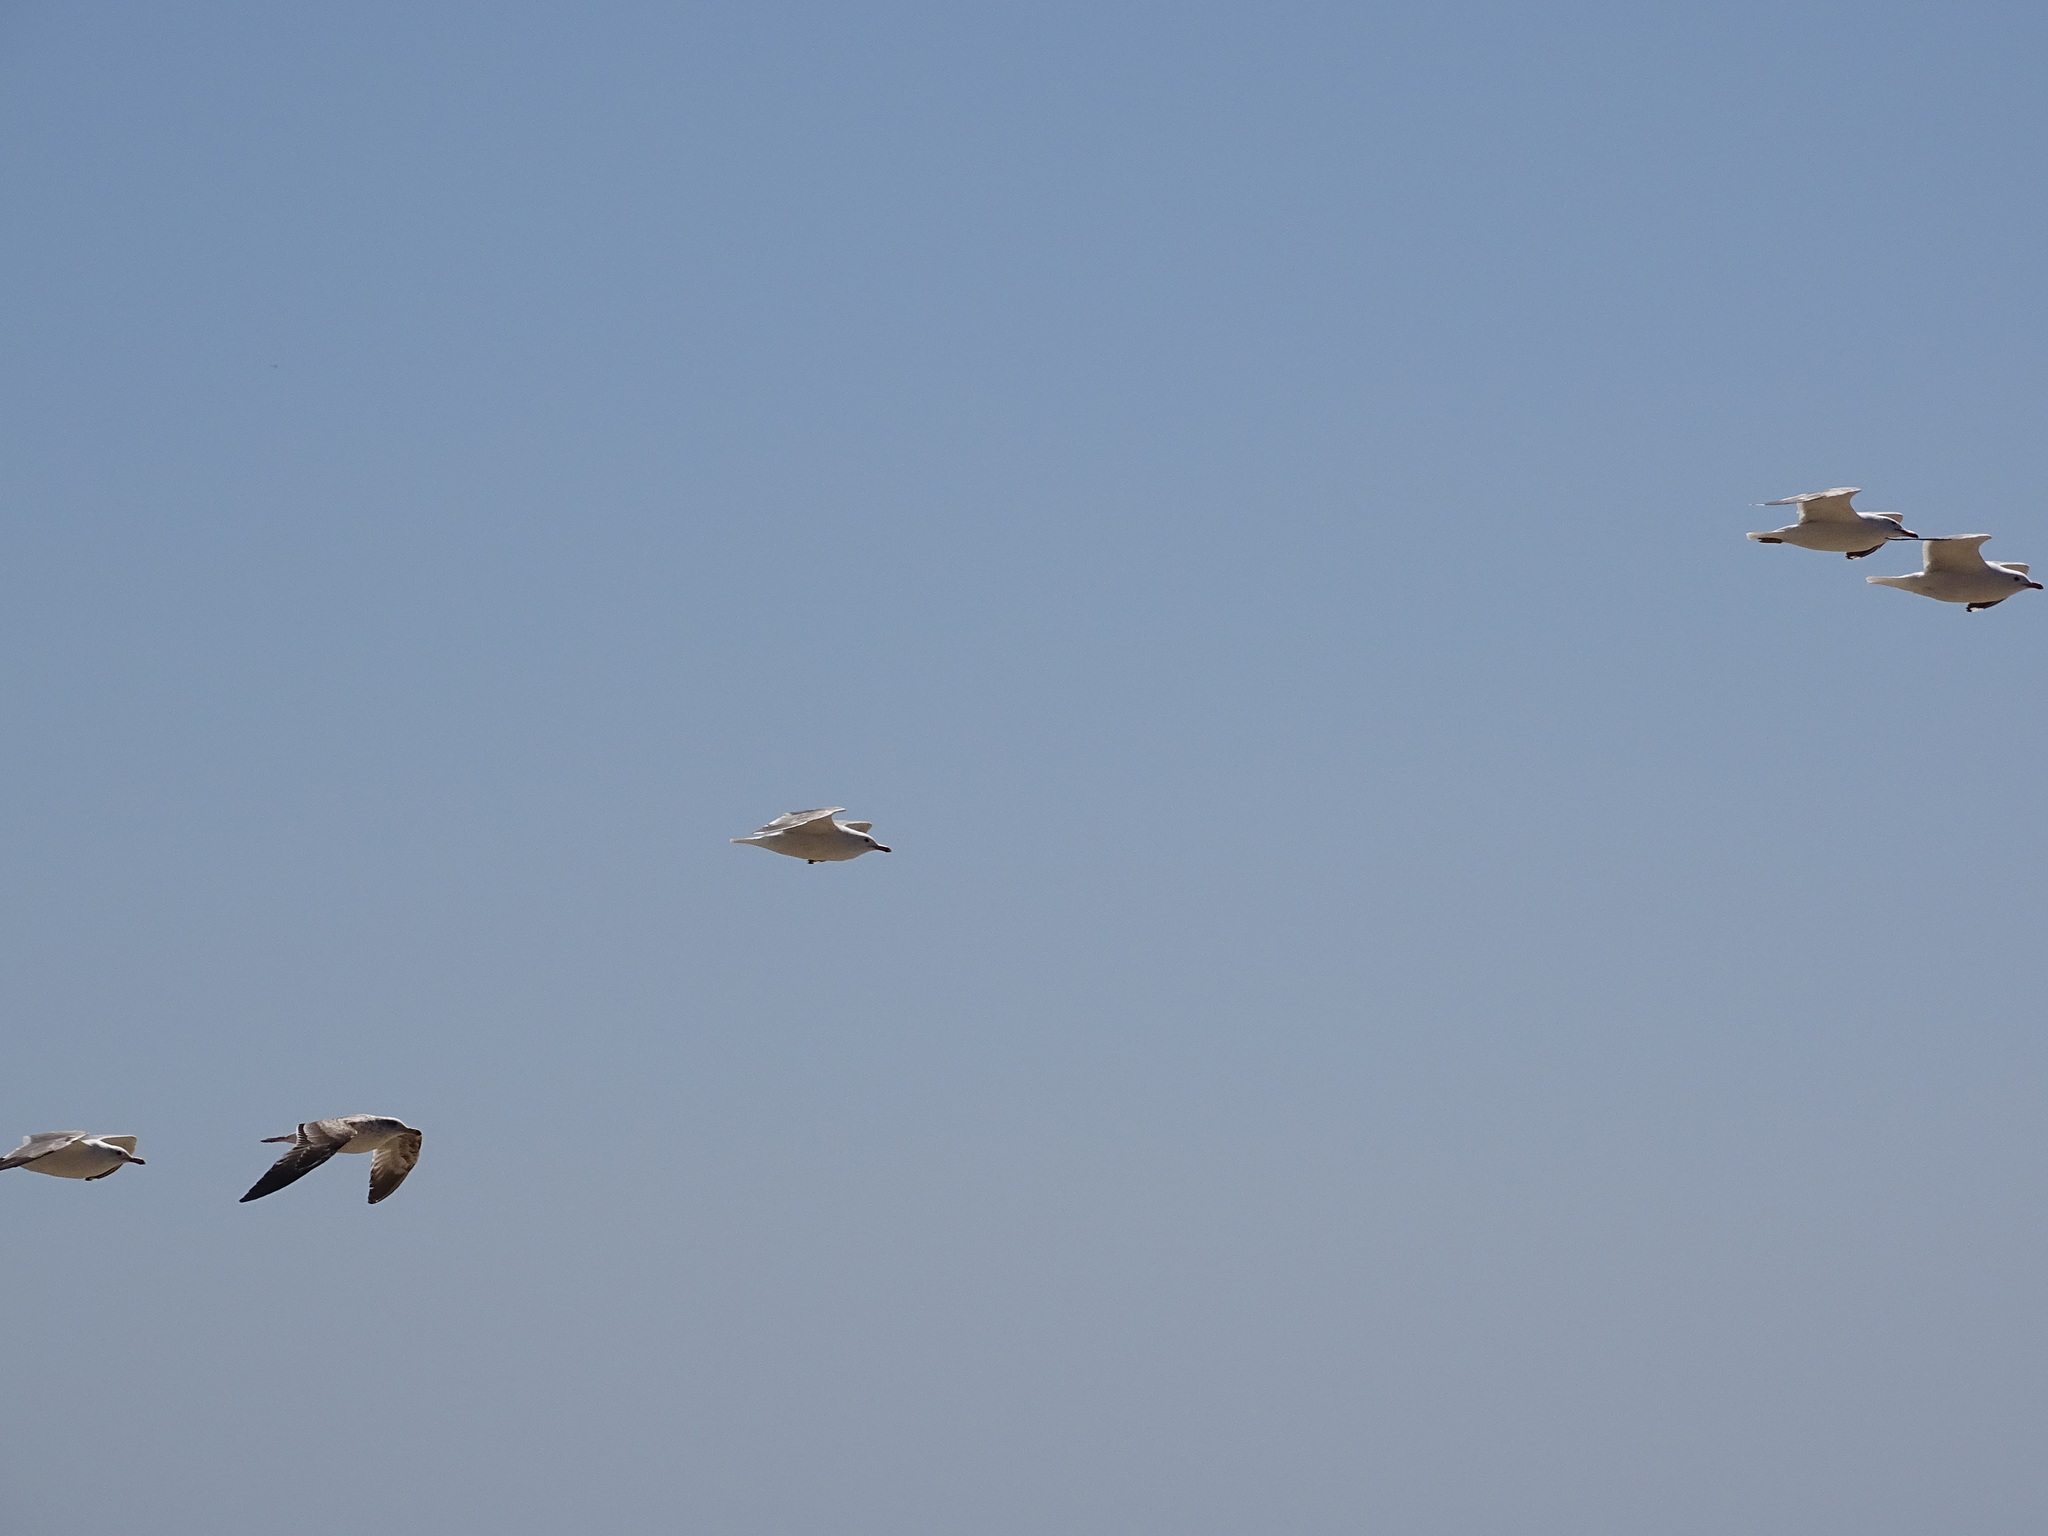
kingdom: Animalia
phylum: Chordata
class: Aves
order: Charadriiformes
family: Laridae
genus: Larus
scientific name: Larus californicus
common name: California gull
